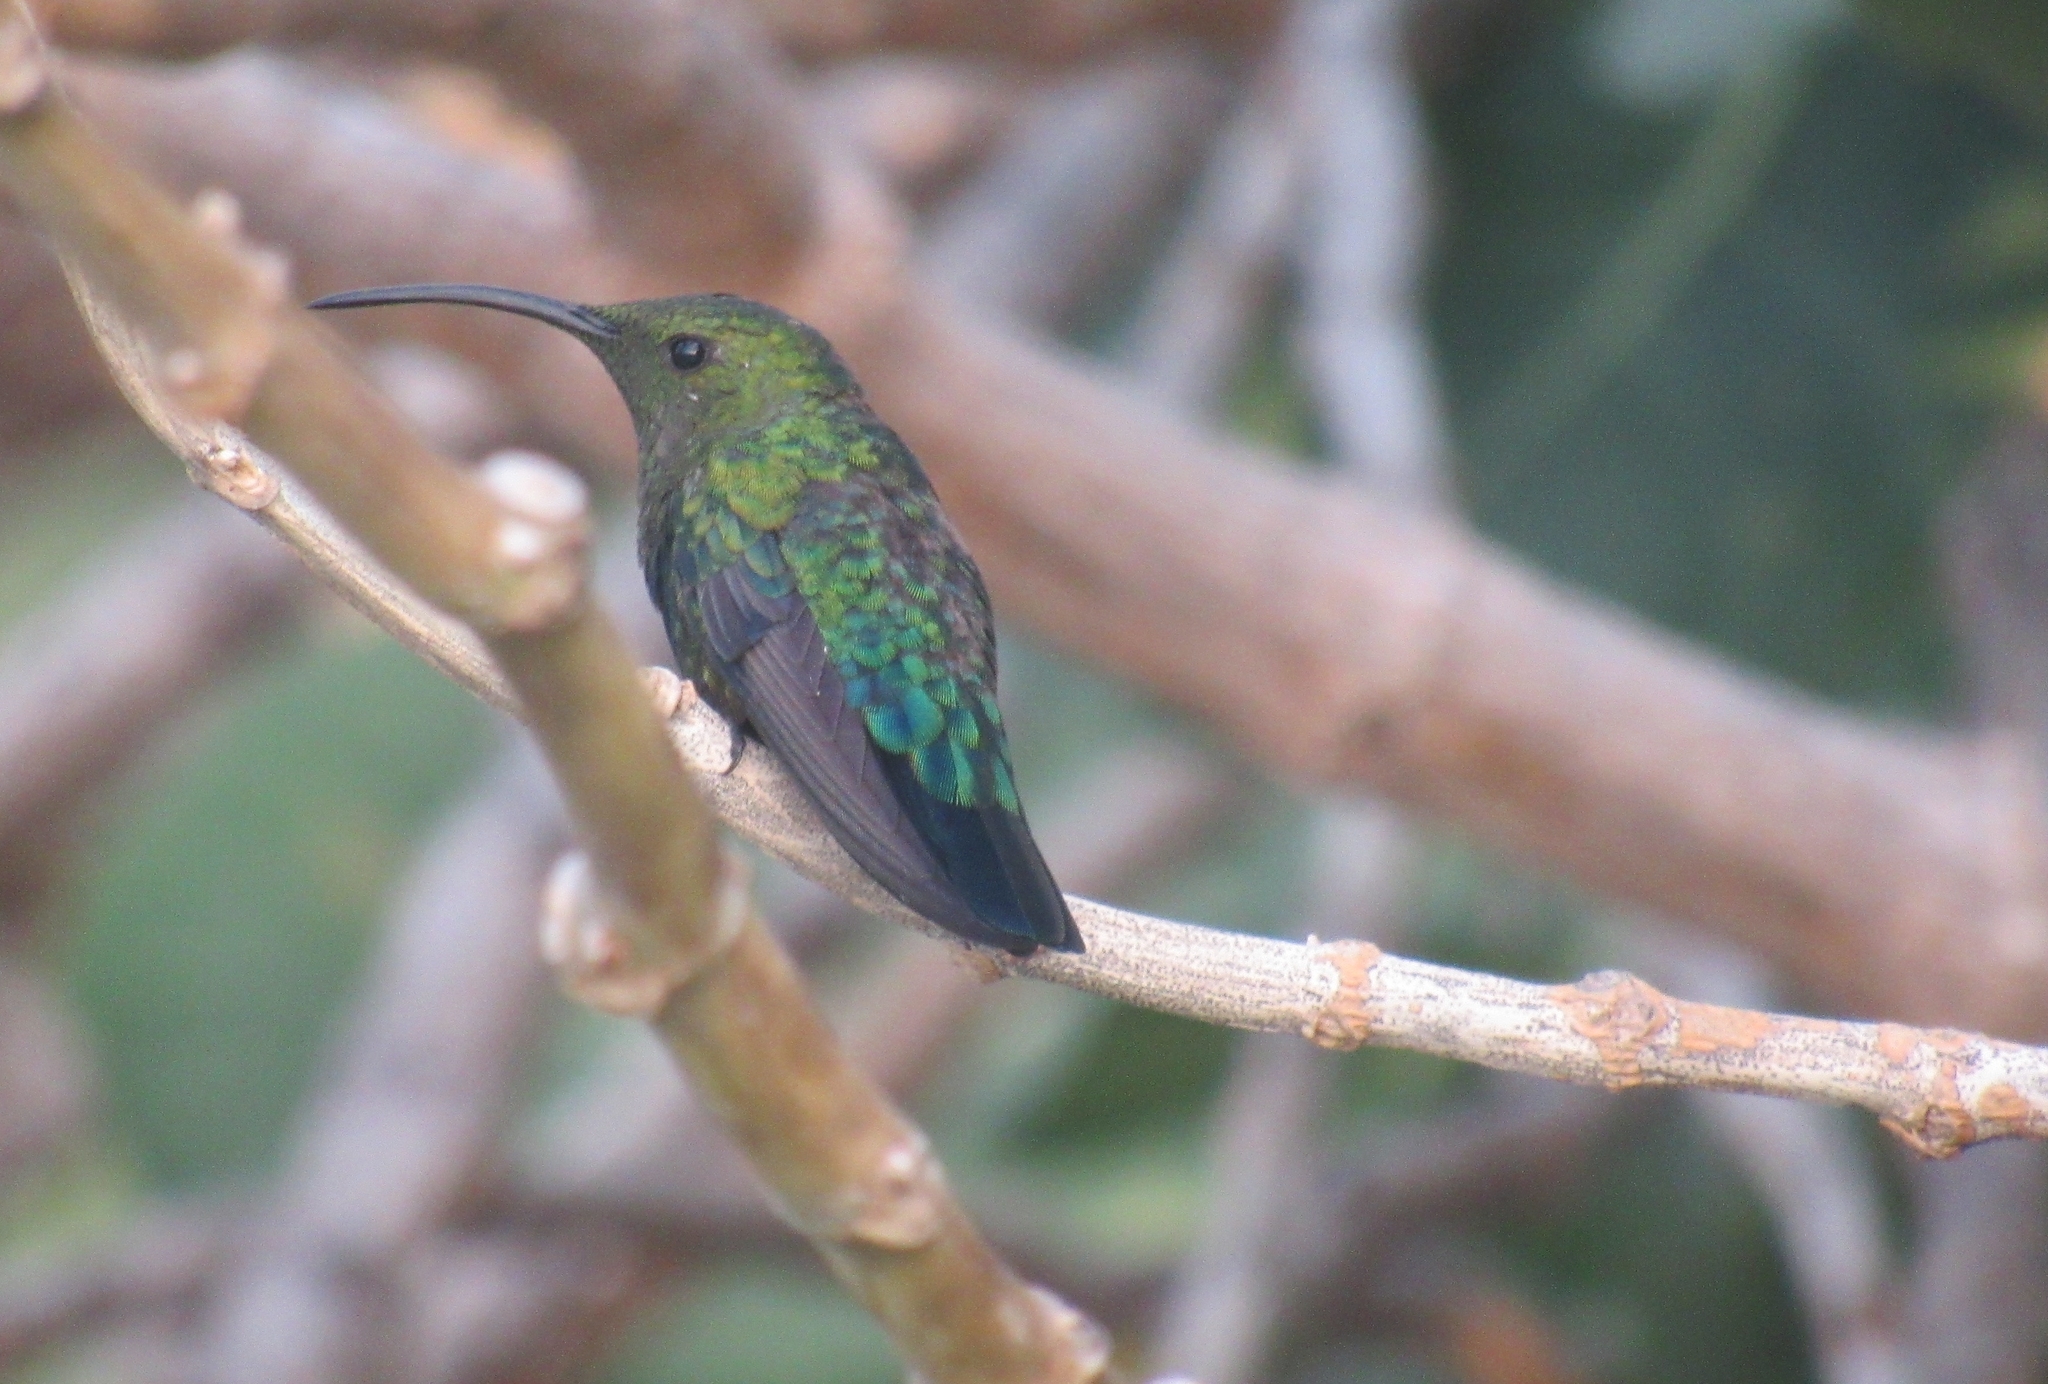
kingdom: Animalia
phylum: Chordata
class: Aves
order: Apodiformes
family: Trochilidae
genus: Eulampis
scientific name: Eulampis holosericeus
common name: Green-throated carib
